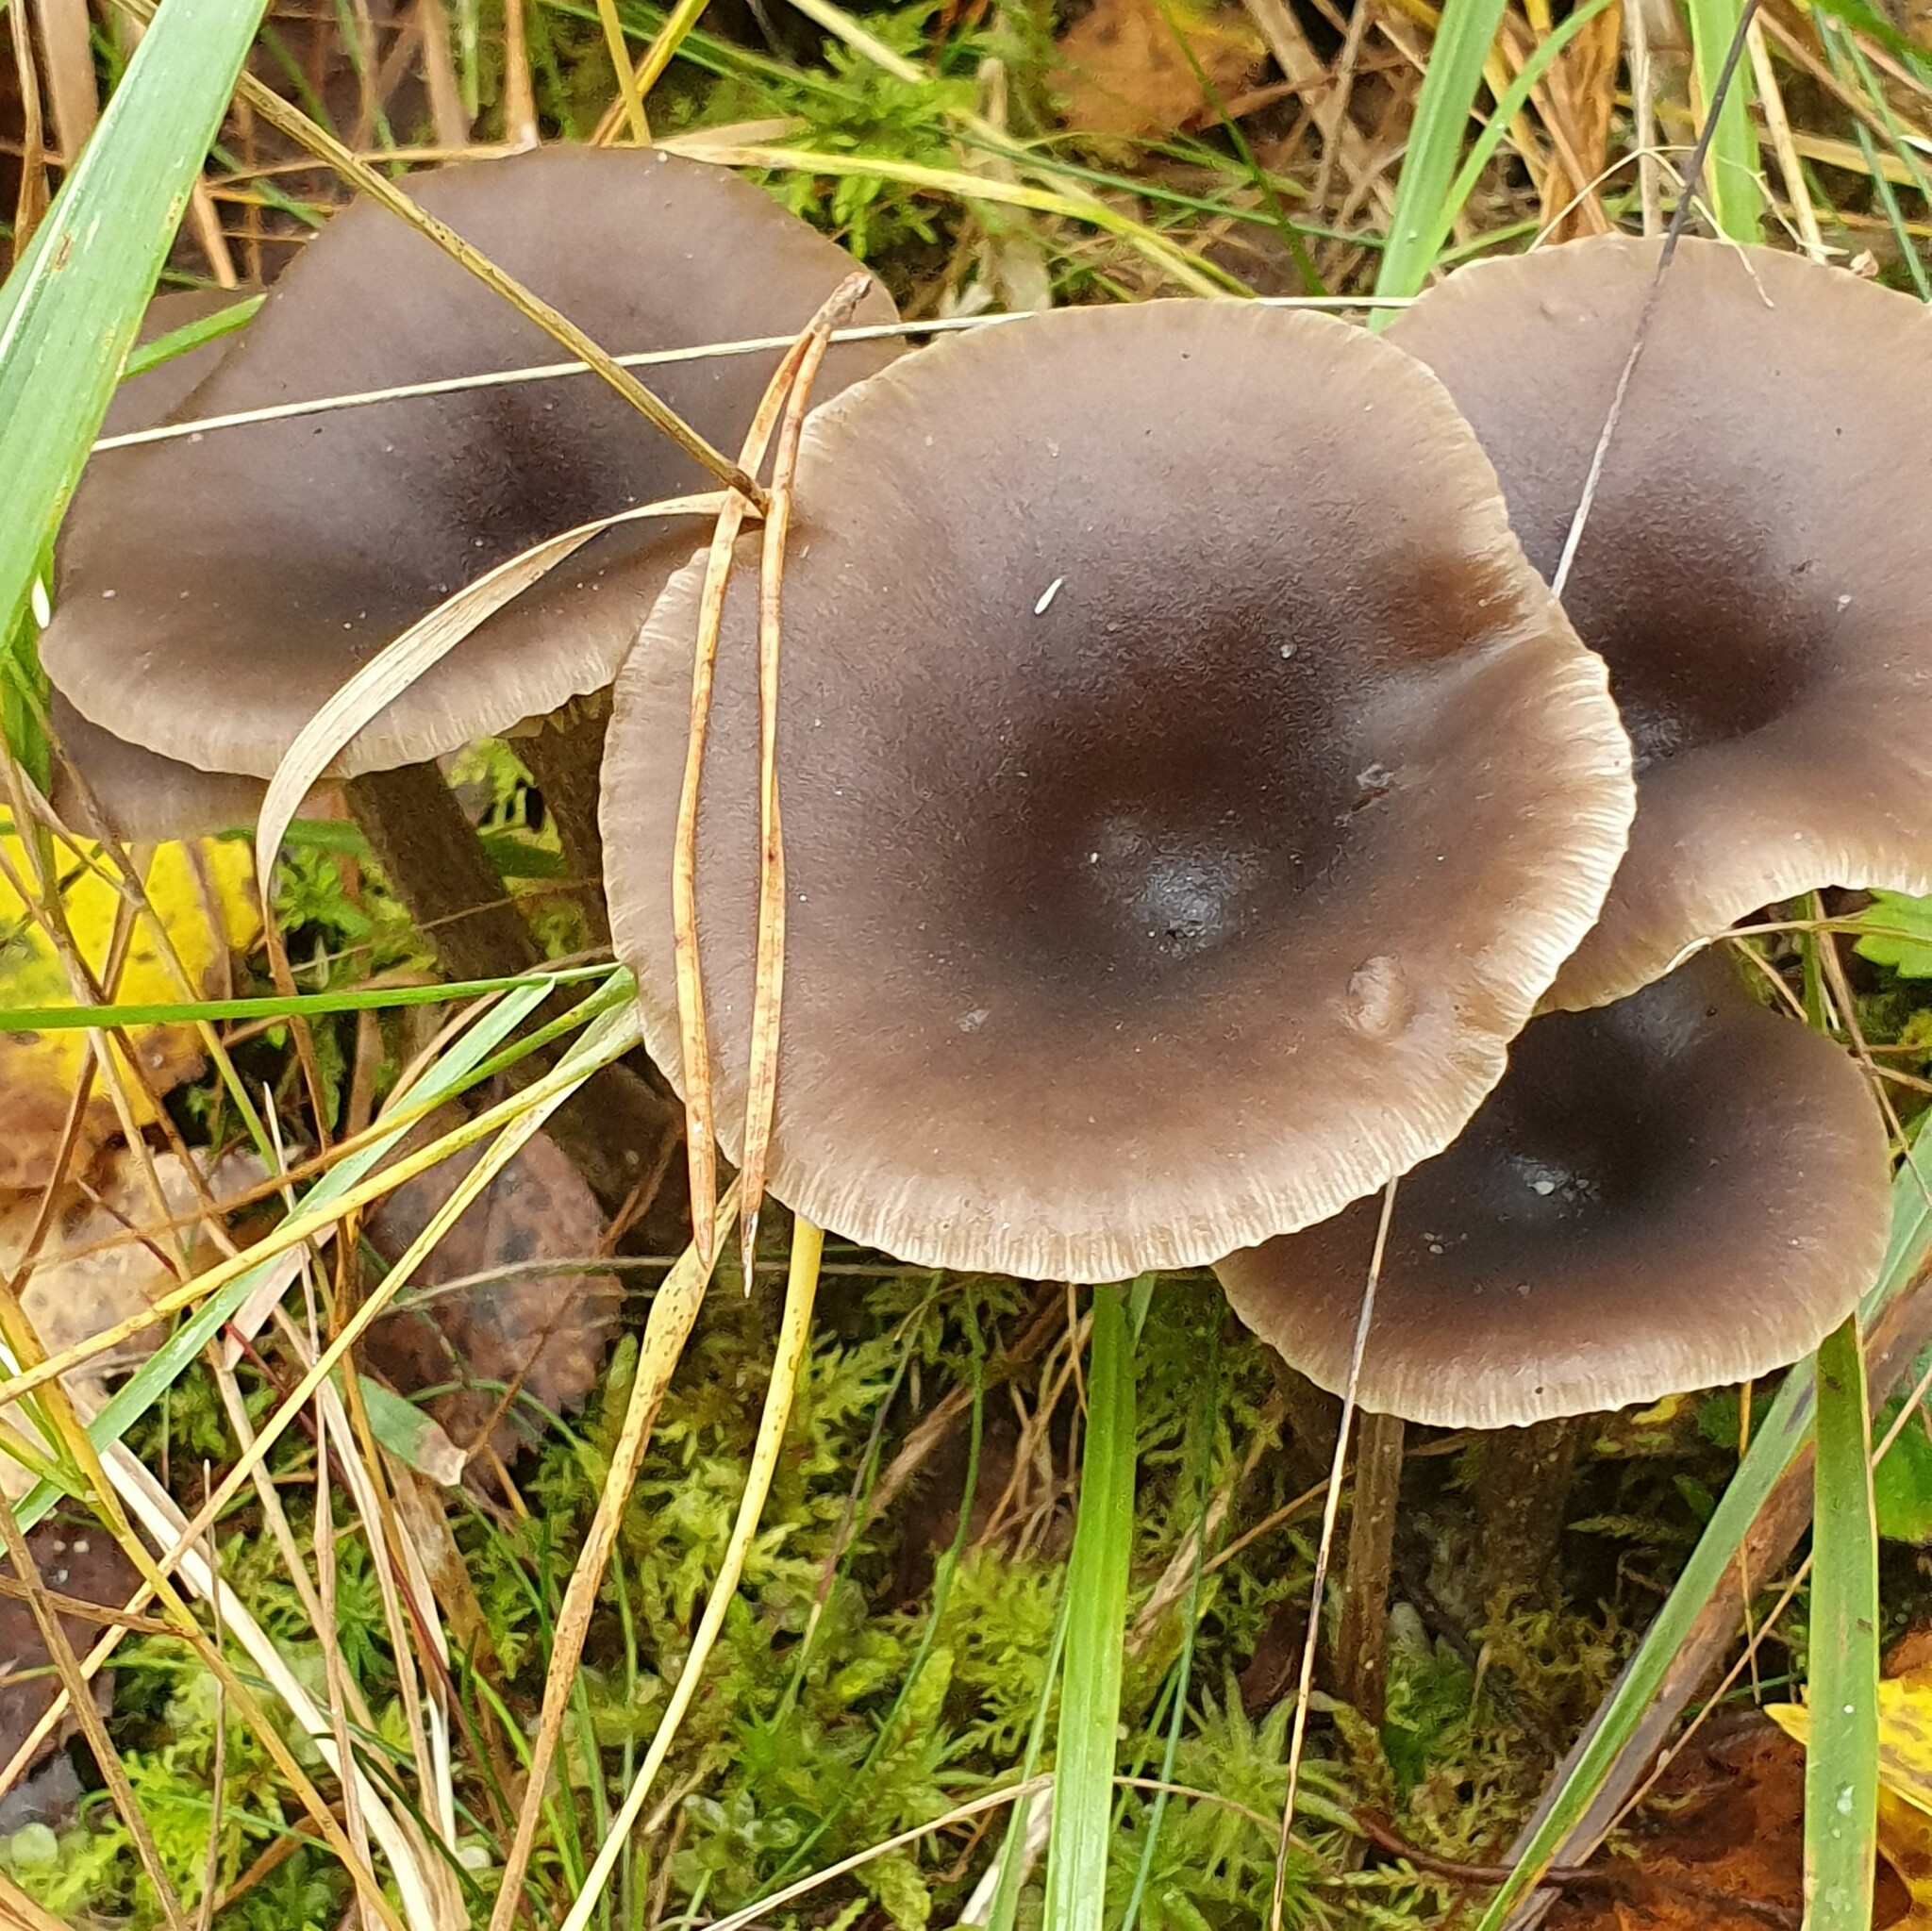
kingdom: Fungi
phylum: Basidiomycota
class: Agaricomycetes
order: Agaricales
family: Pseudoclitocybaceae
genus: Pseudoclitocybe
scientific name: Pseudoclitocybe cyathiformis
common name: Goblet
